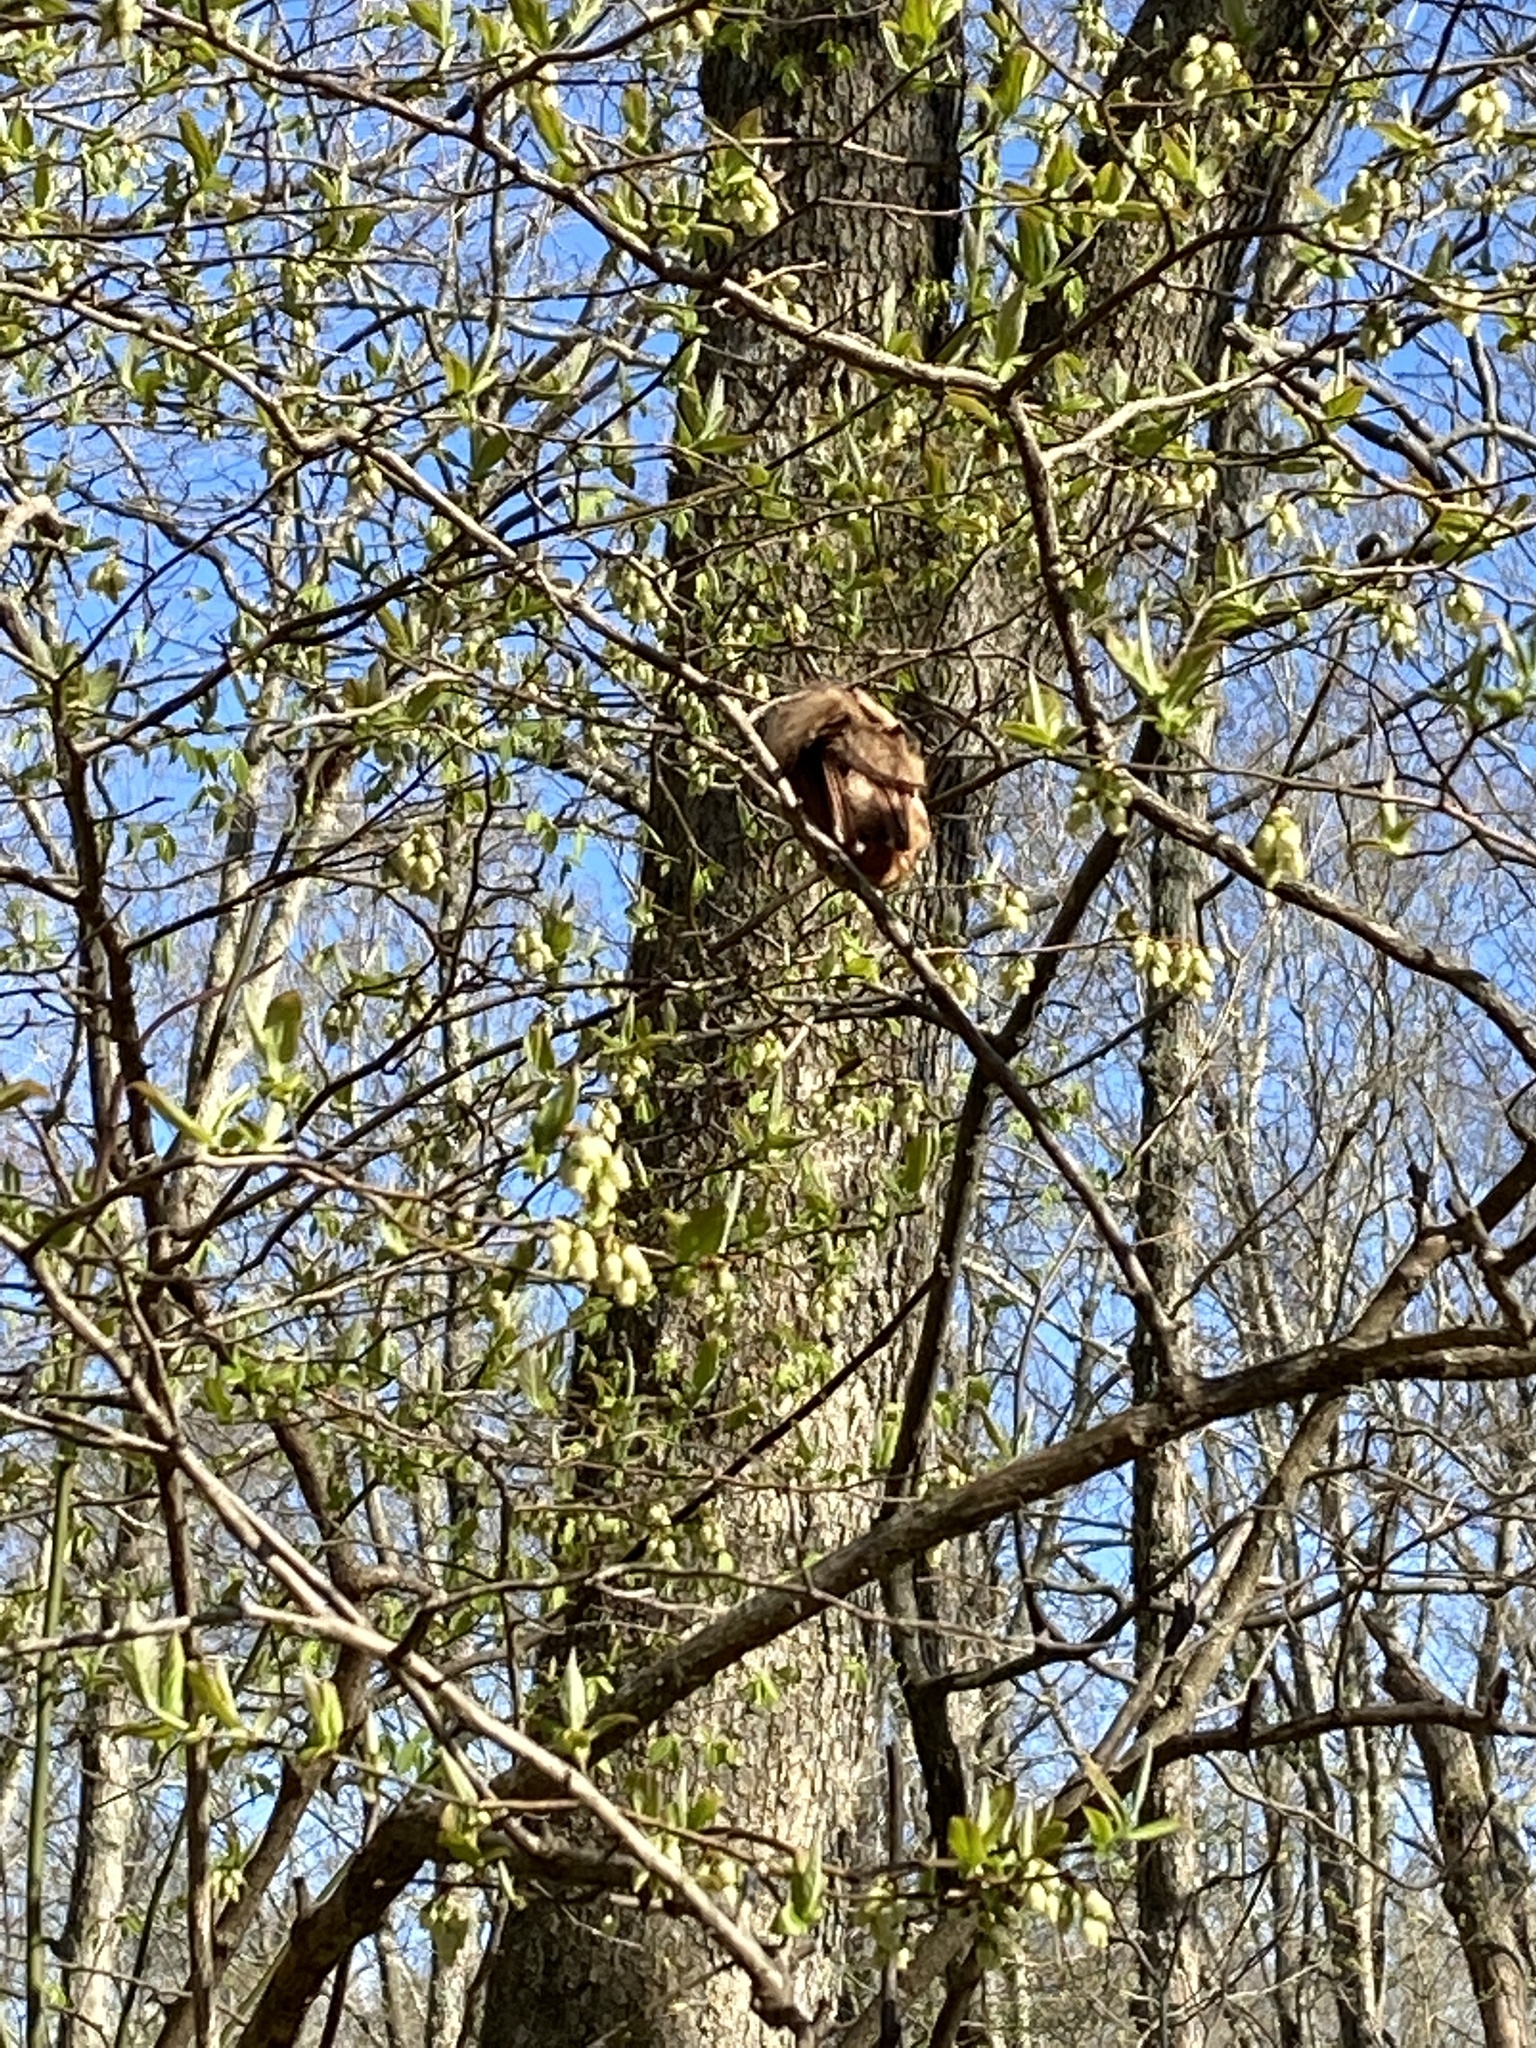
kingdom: Animalia
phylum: Chordata
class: Mammalia
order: Chiroptera
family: Vespertilionidae
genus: Lasiurus
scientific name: Lasiurus borealis
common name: Eastern red bat
